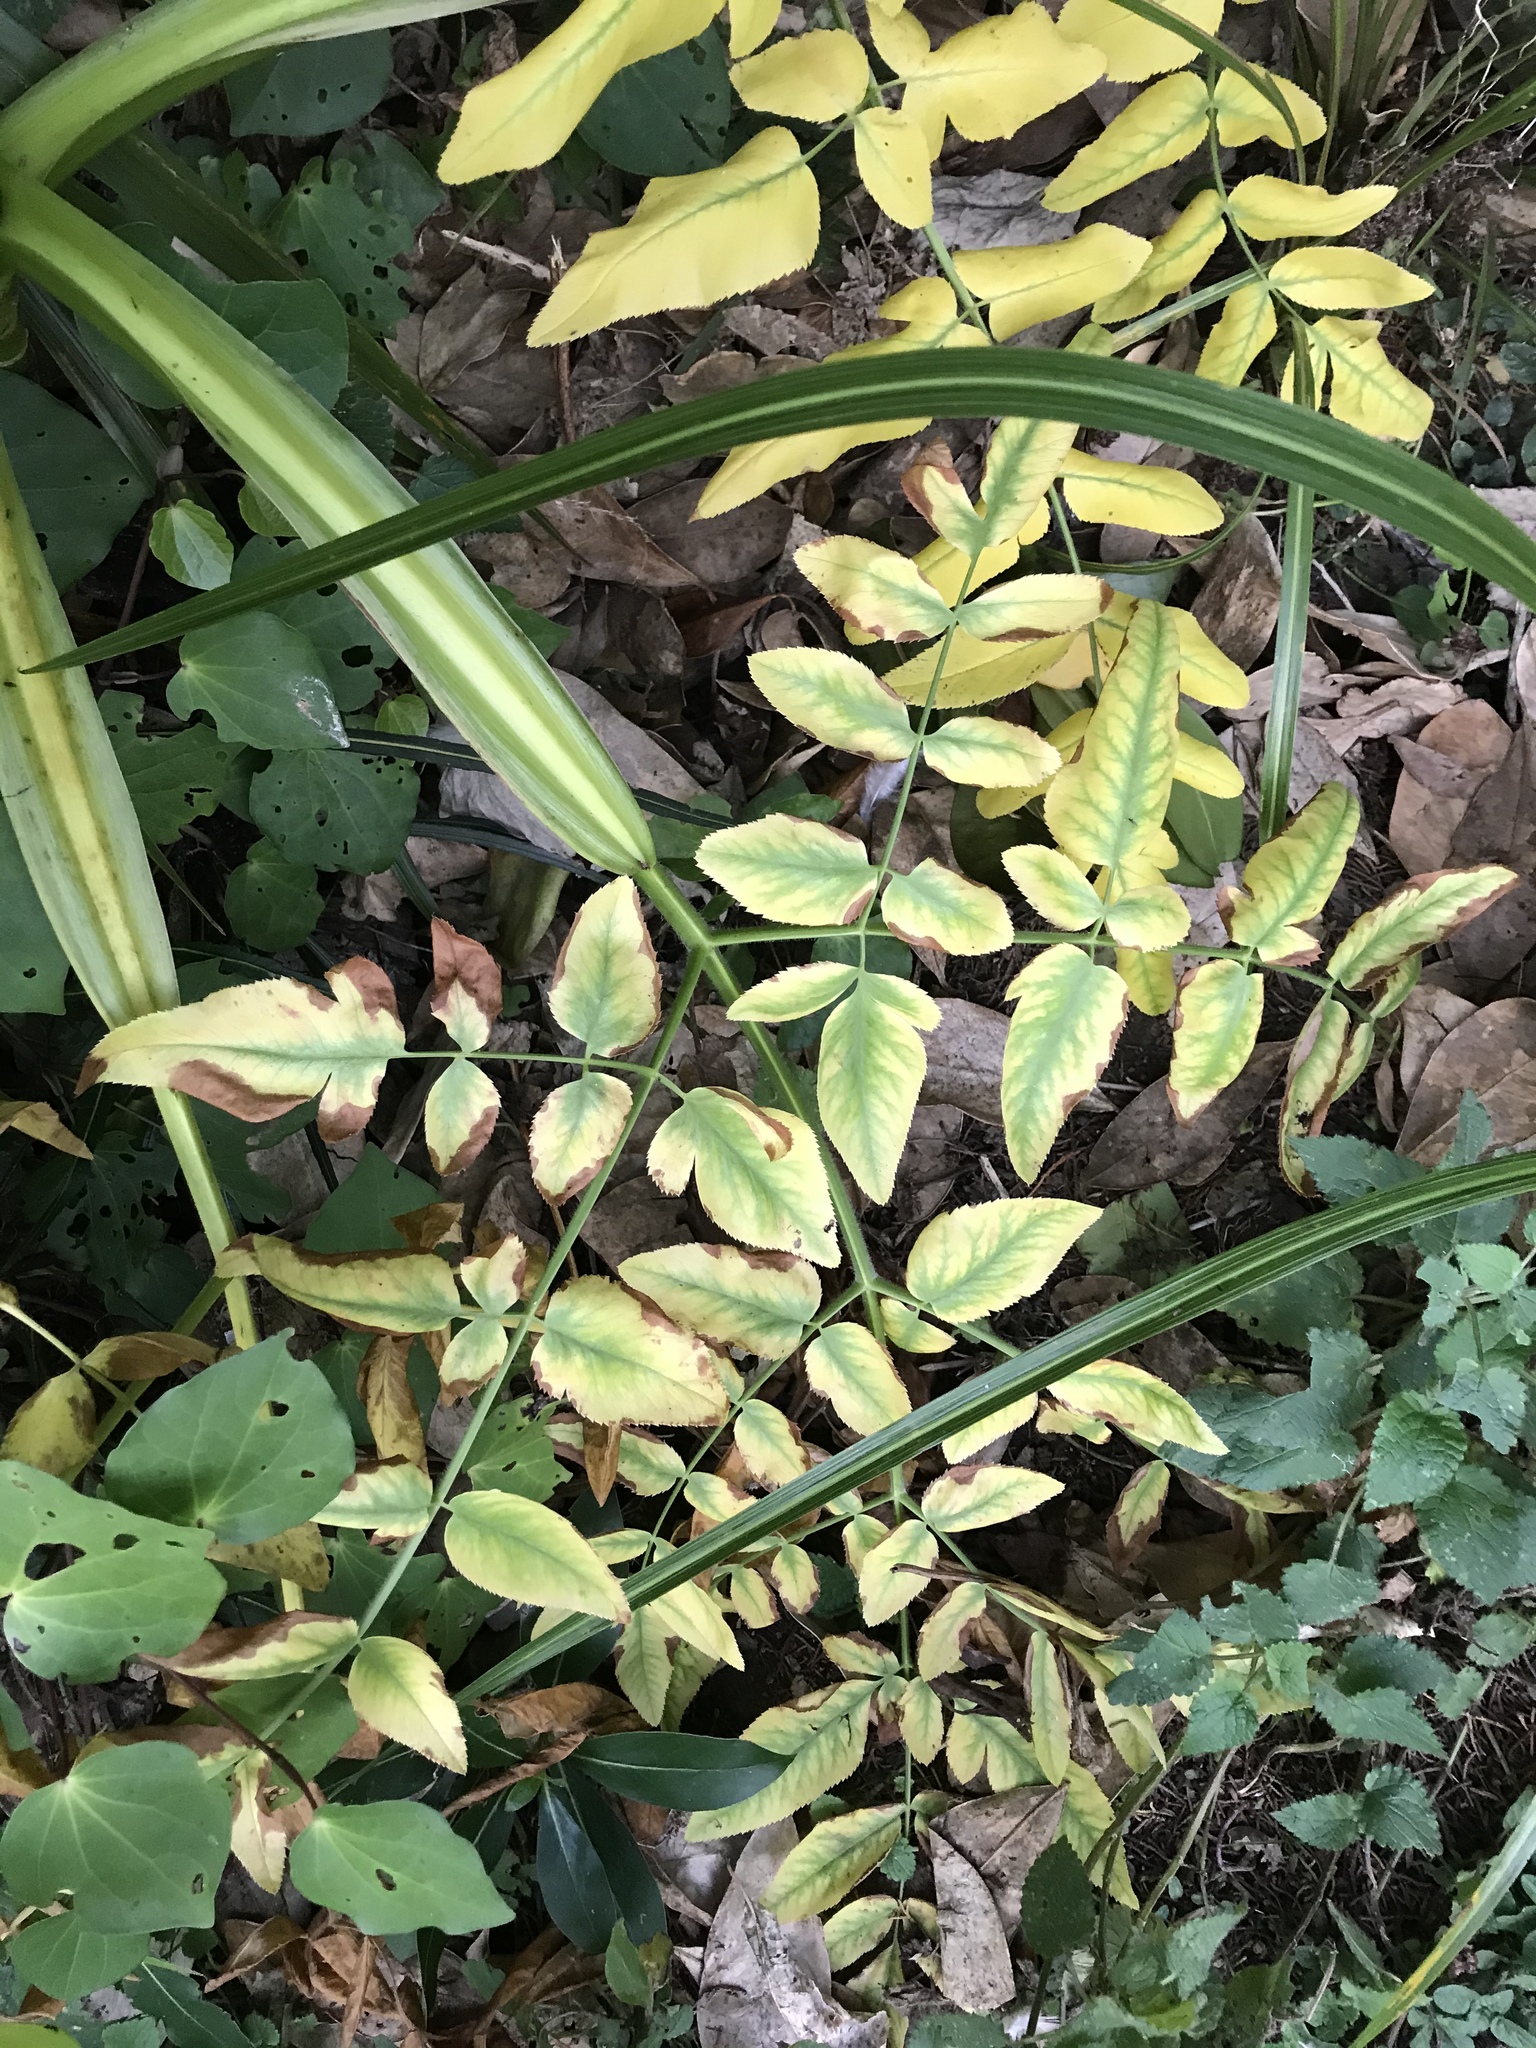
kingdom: Plantae
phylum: Tracheophyta
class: Magnoliopsida
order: Apiales
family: Apiaceae
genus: Daucus
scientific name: Daucus decipiens
